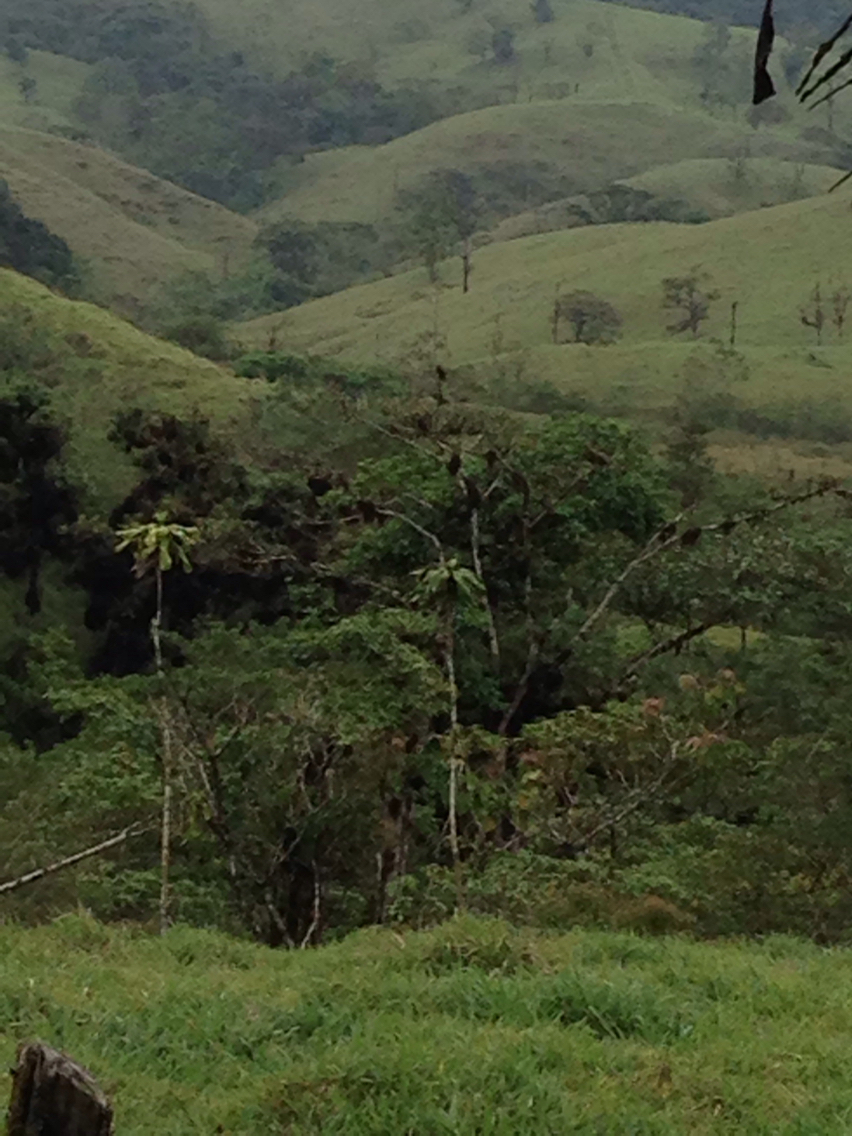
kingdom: Animalia
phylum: Chordata
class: Aves
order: Passeriformes
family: Icteridae
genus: Psarocolius
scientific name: Psarocolius montezuma
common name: Montezuma oropendola
